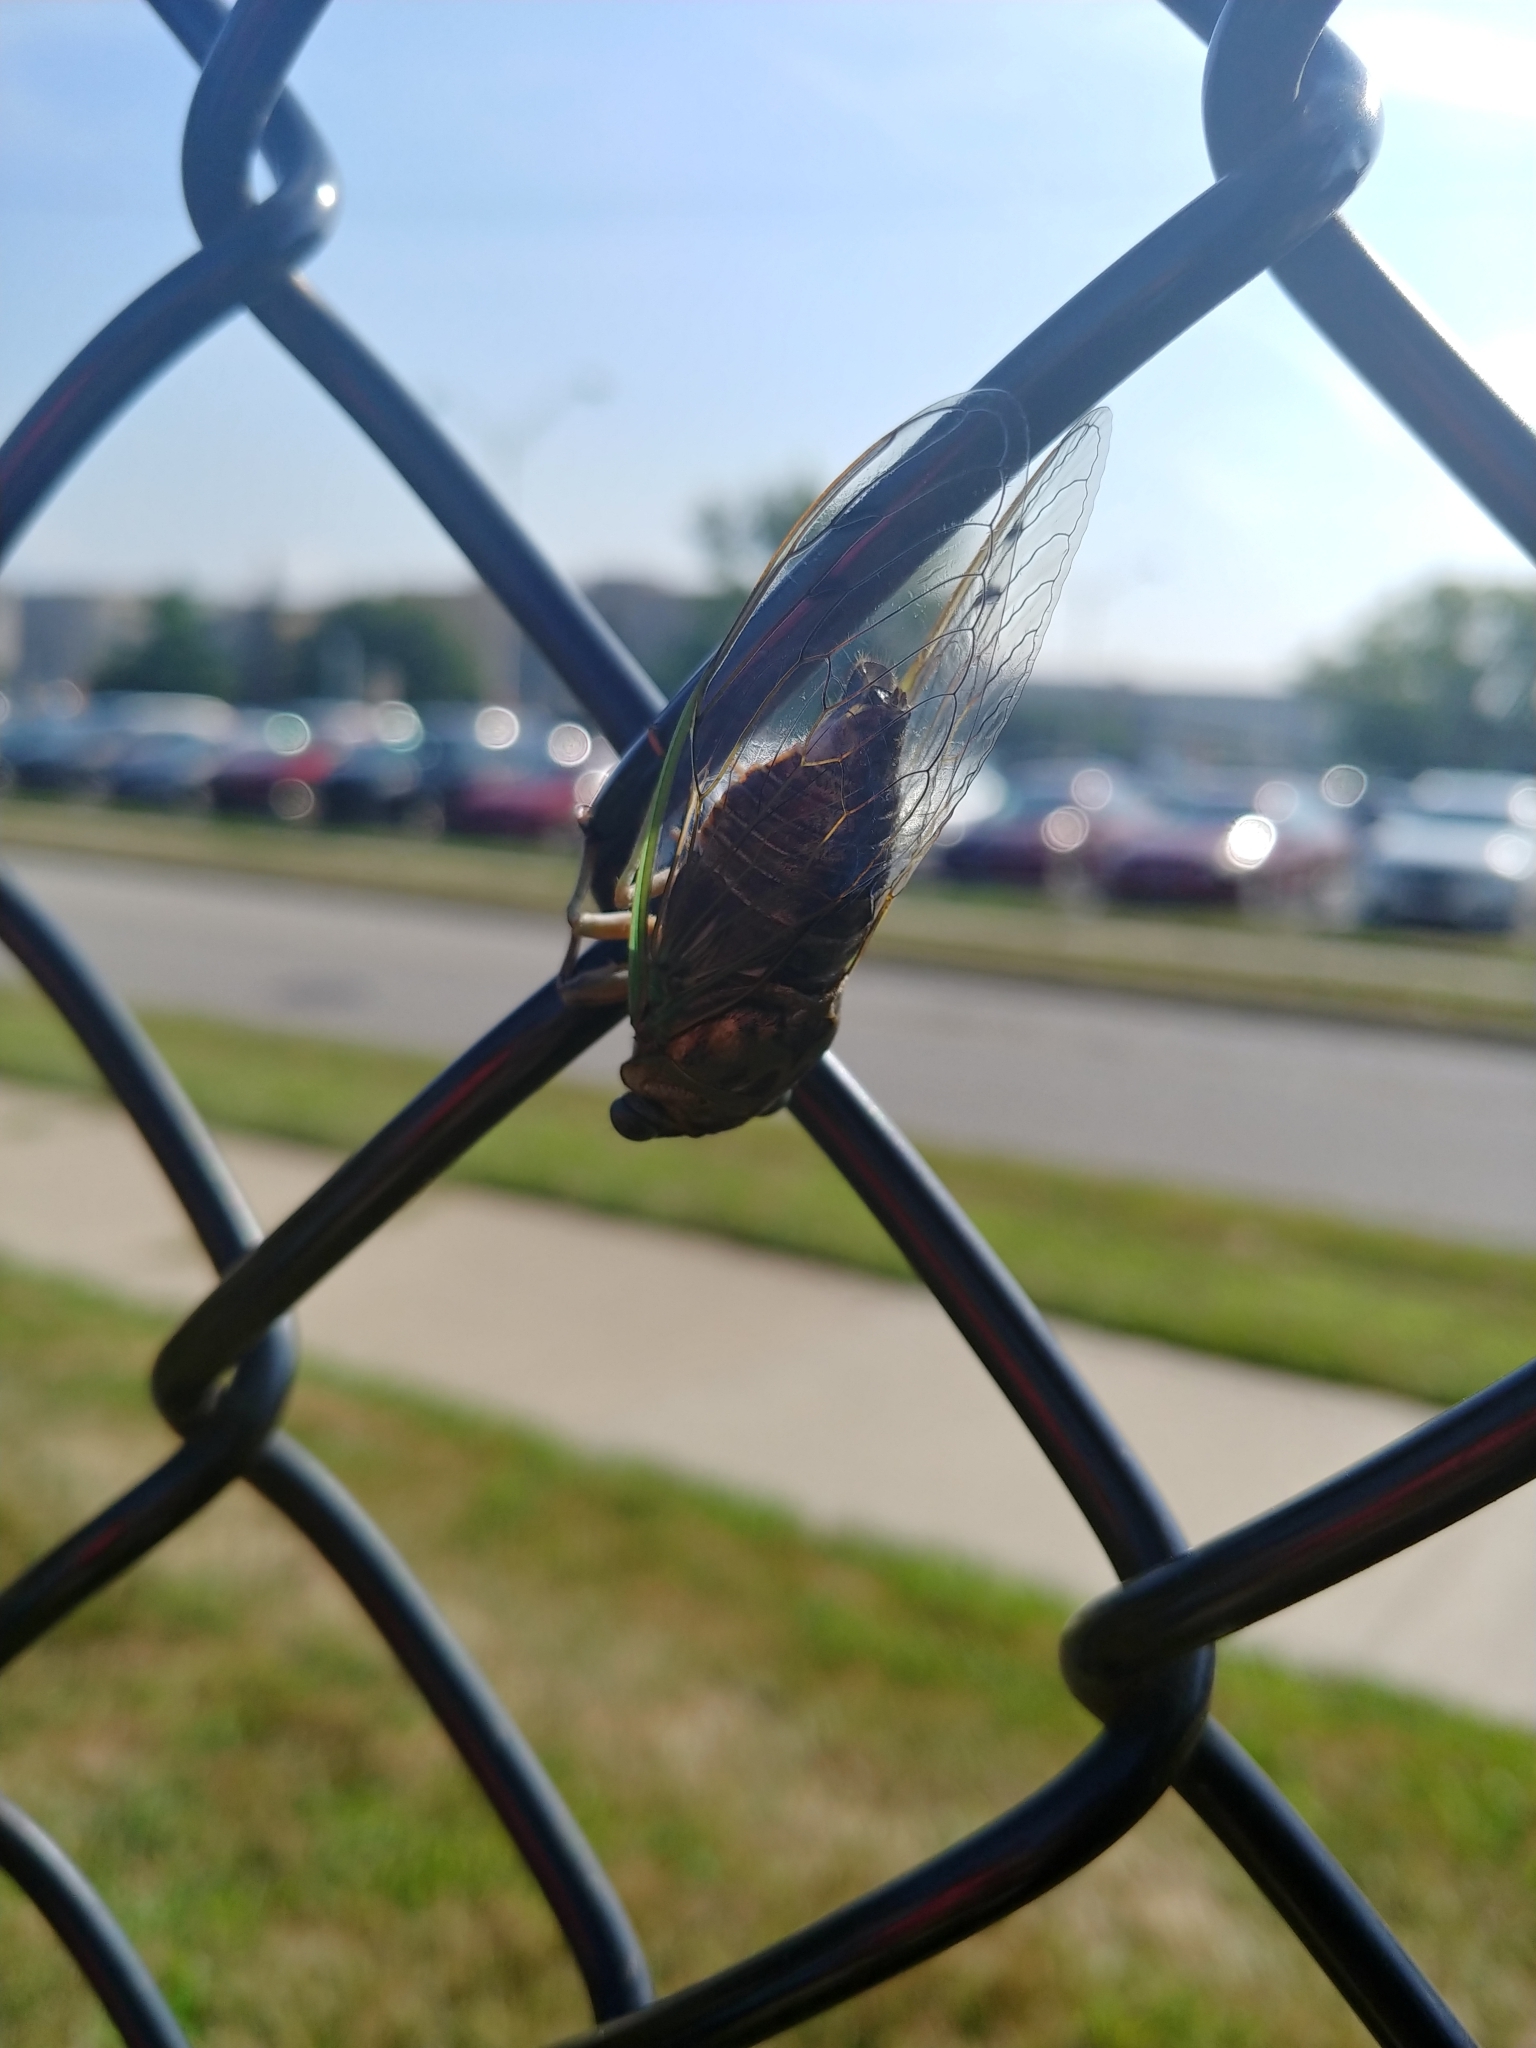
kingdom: Animalia
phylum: Arthropoda
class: Insecta
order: Hemiptera
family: Cicadidae
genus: Neotibicen
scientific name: Neotibicen pruinosus
